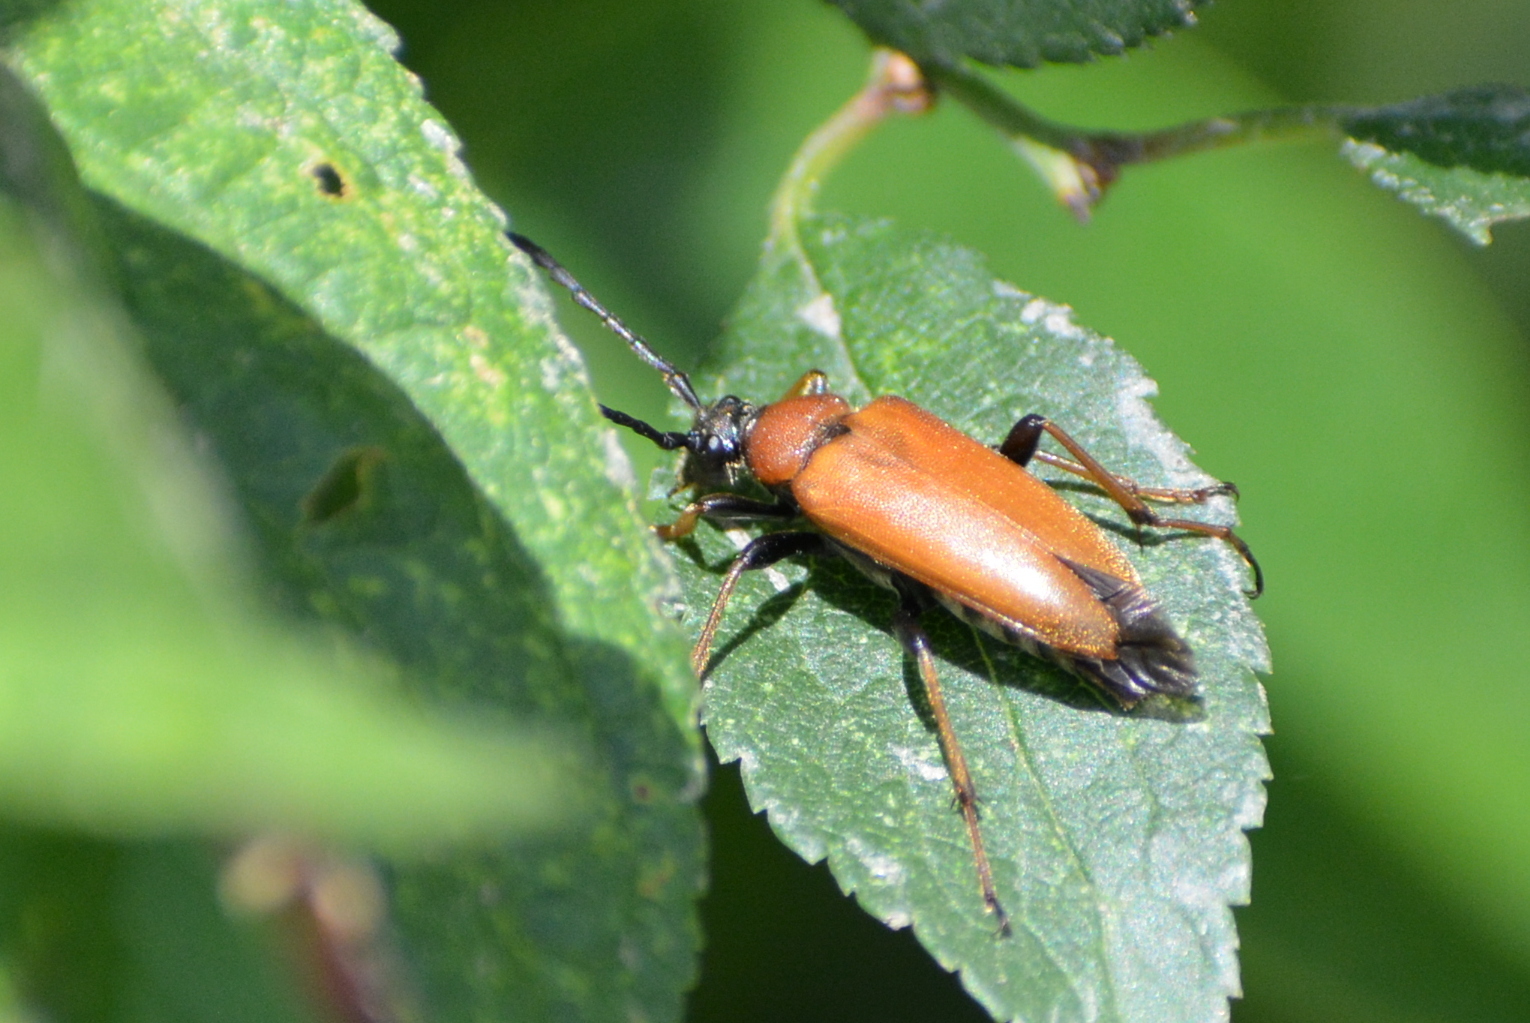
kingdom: Animalia
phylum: Arthropoda
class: Insecta
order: Coleoptera
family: Cerambycidae
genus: Stictoleptura
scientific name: Stictoleptura rubra
